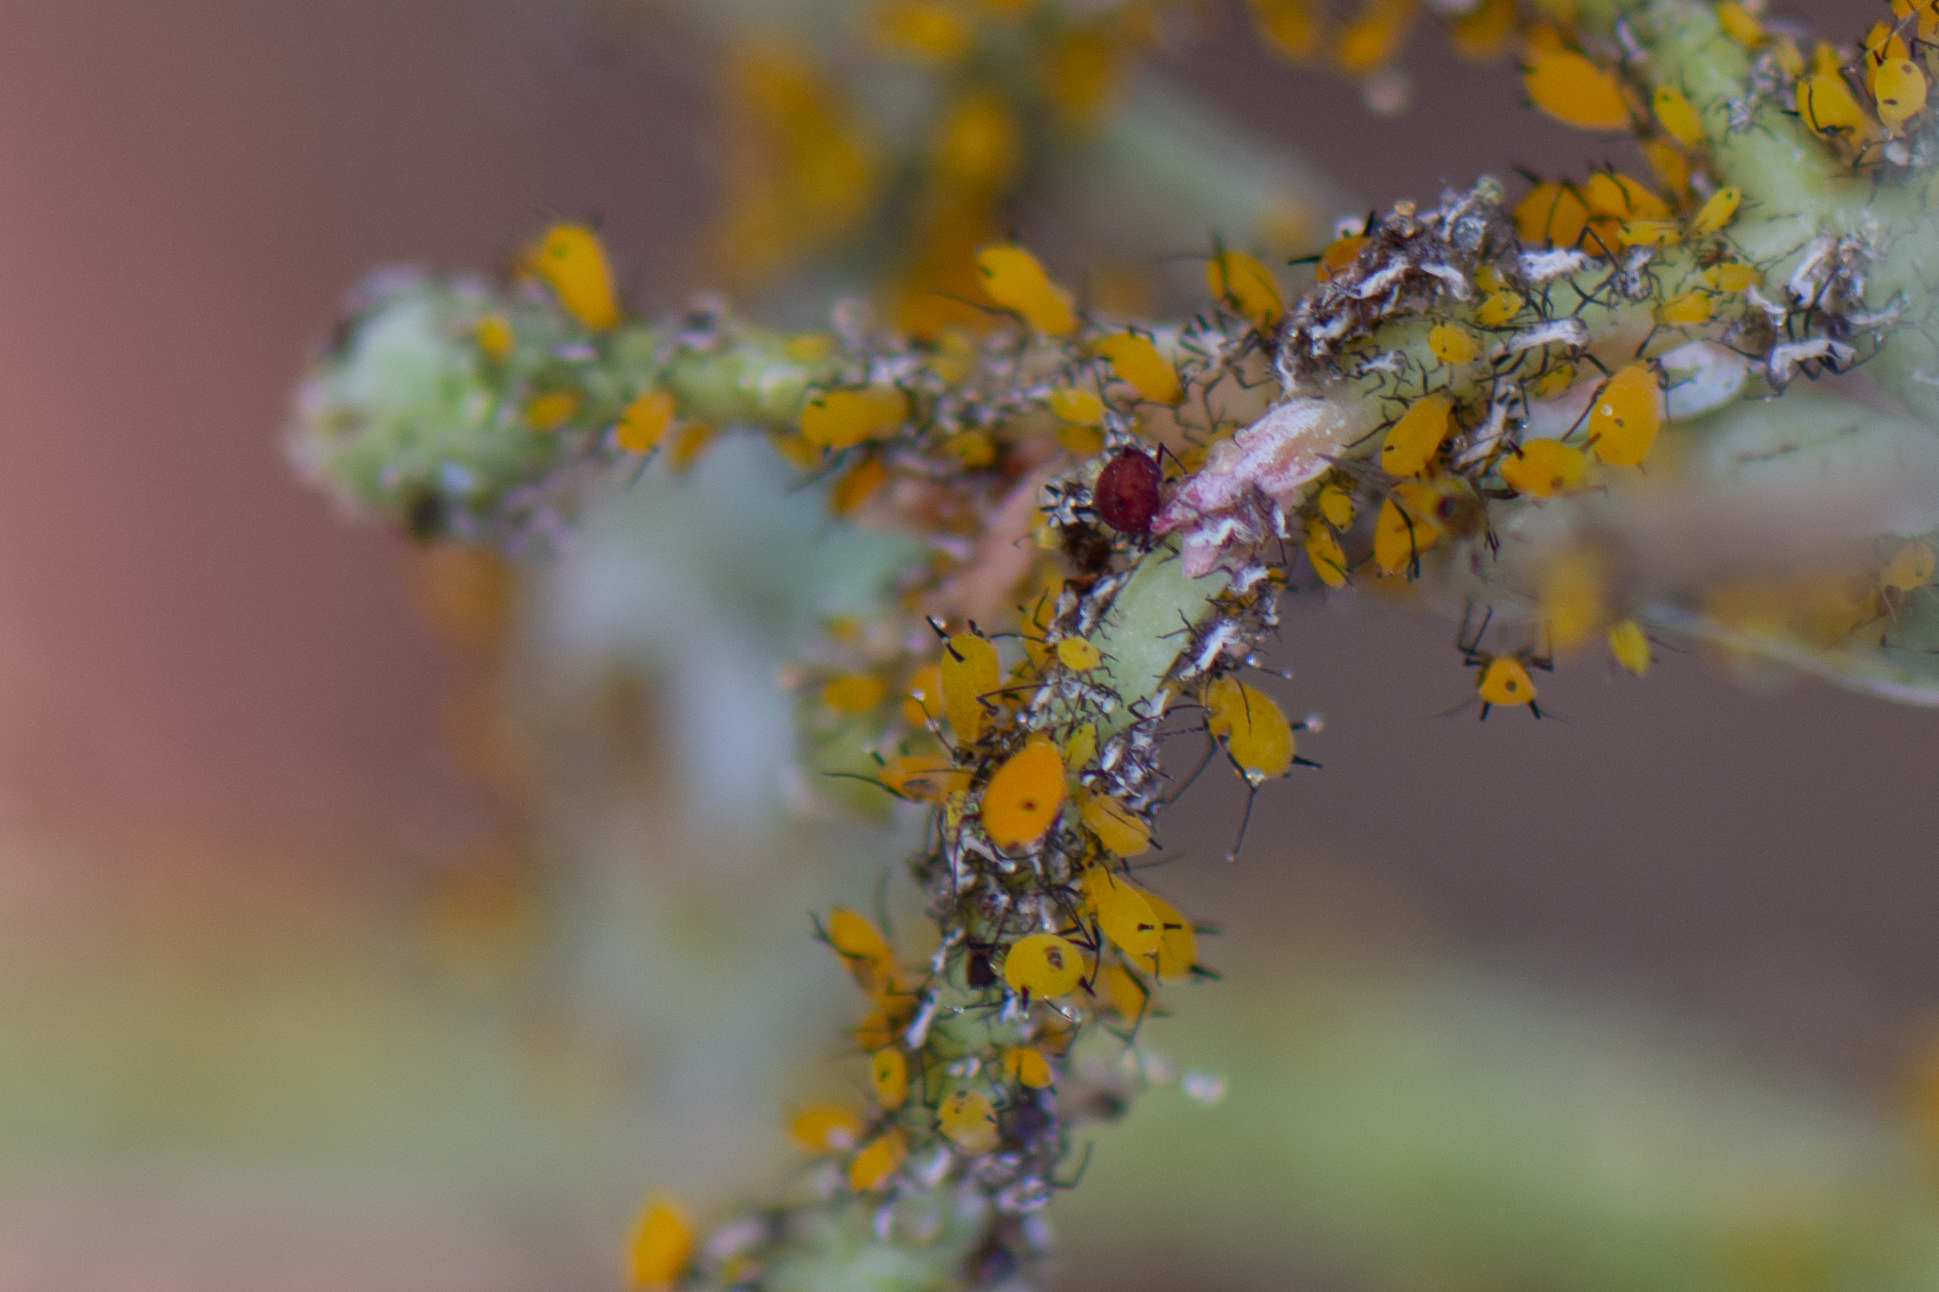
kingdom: Animalia
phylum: Arthropoda
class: Insecta
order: Hemiptera
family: Aphididae
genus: Aphis
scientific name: Aphis nerii
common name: Oleander aphid
